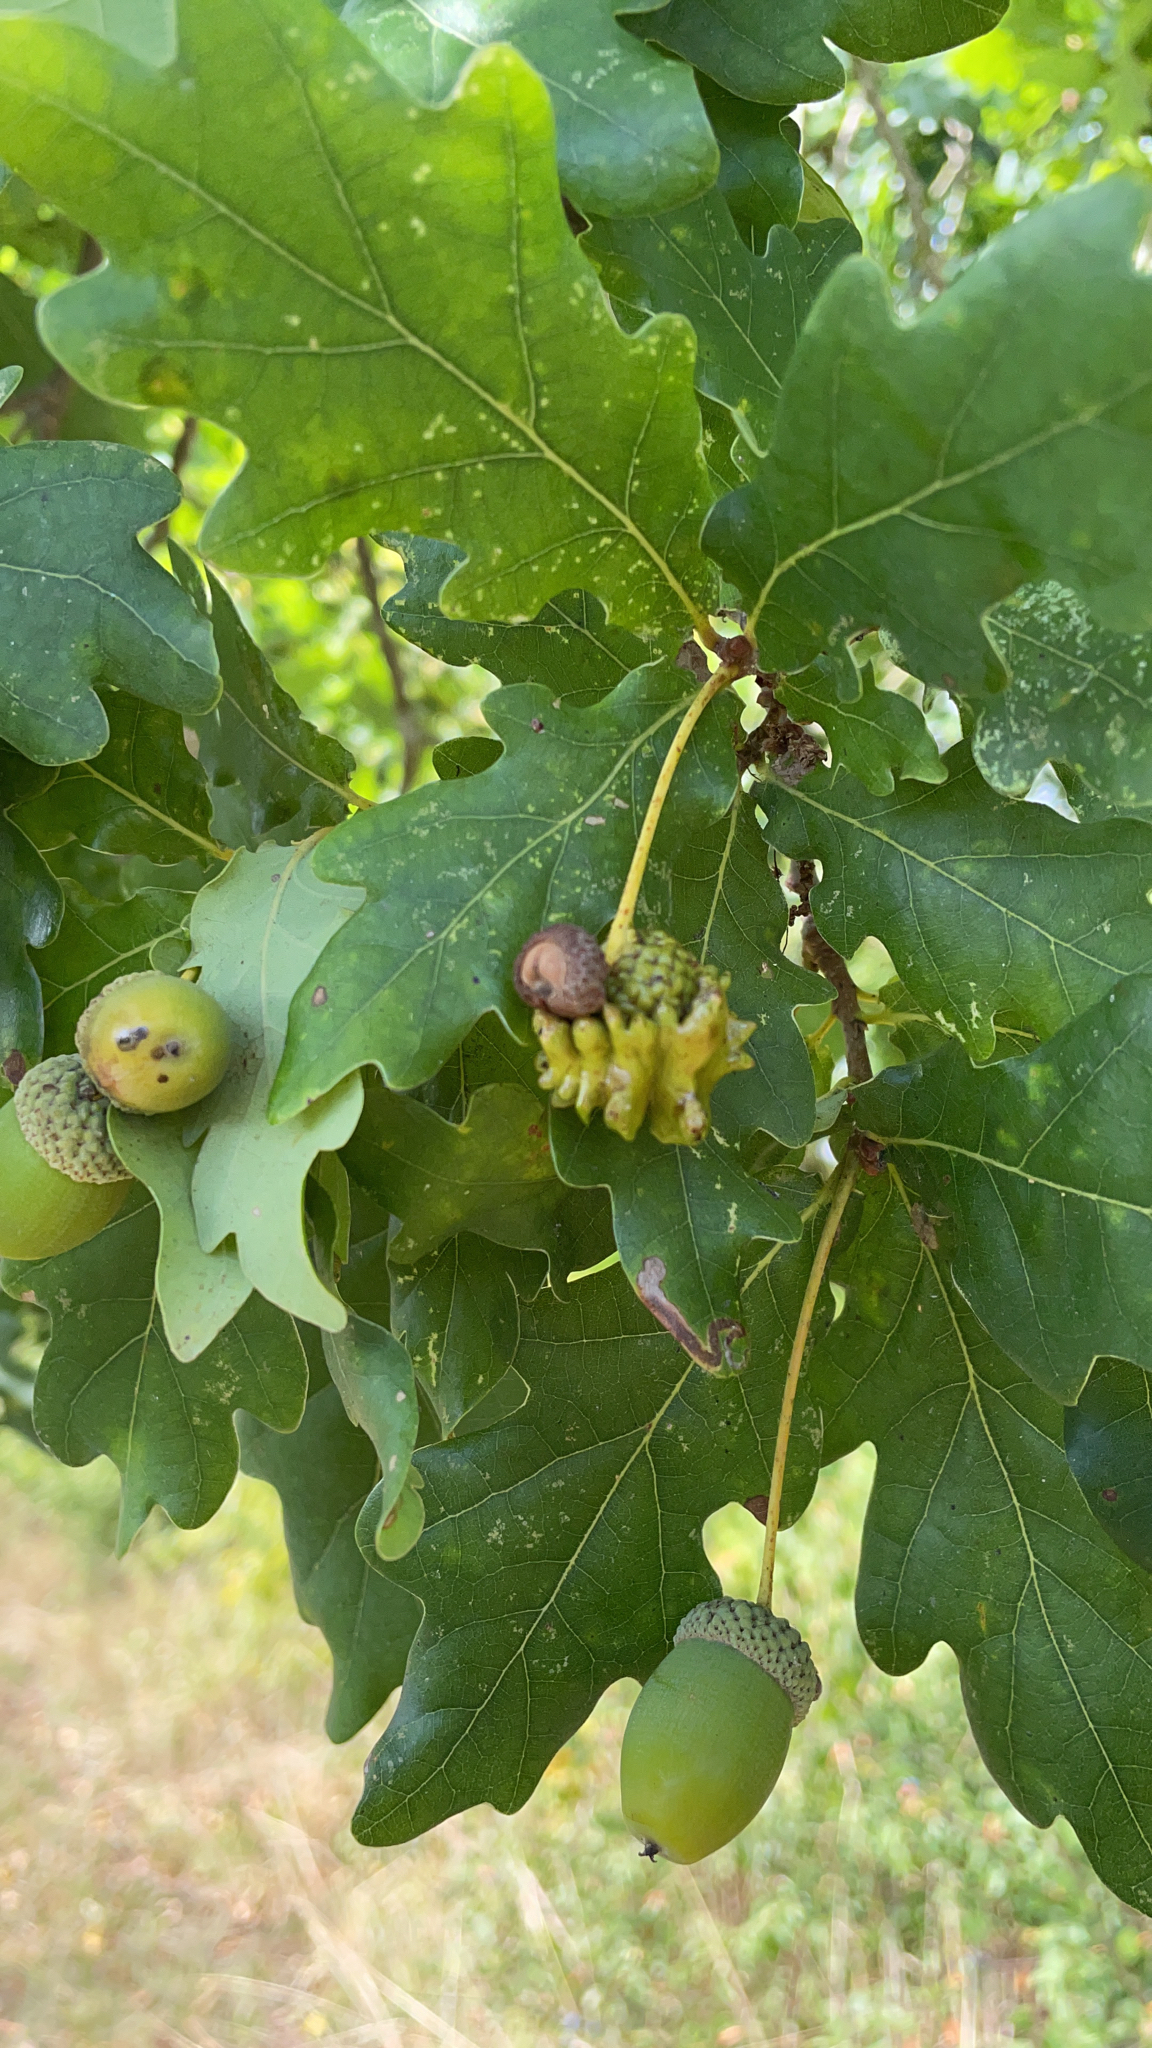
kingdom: Animalia
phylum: Arthropoda
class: Insecta
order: Hymenoptera
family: Cynipidae
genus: Andricus
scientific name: Andricus quercuscalicis
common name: Knopper gall
